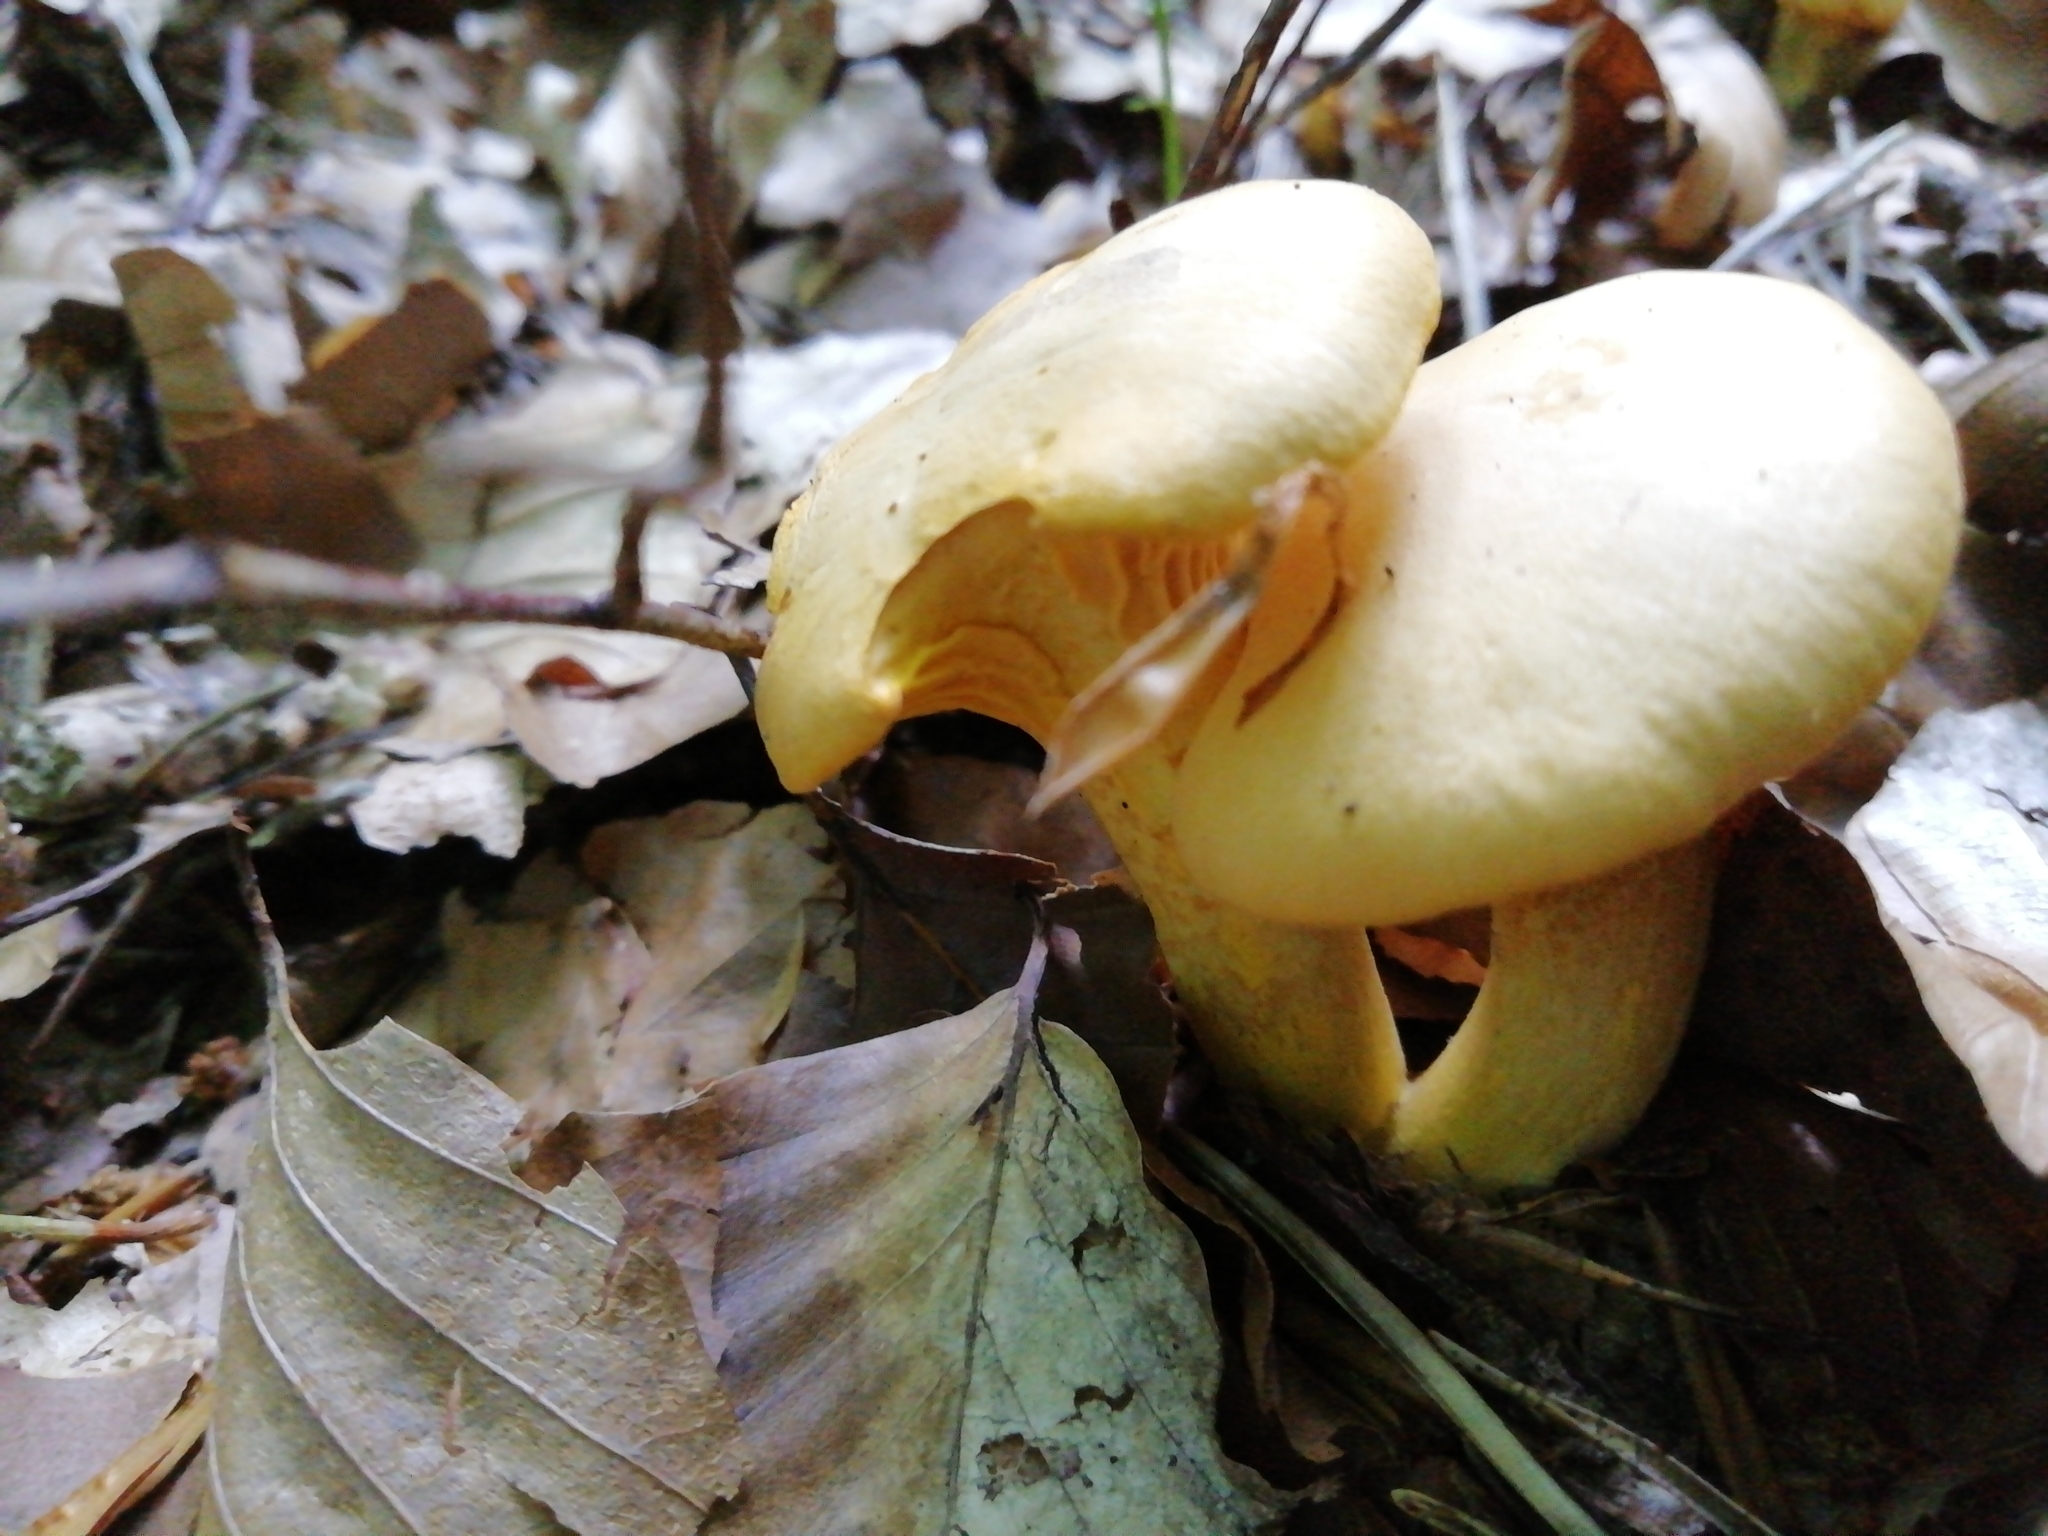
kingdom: Fungi
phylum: Basidiomycota
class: Agaricomycetes
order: Cantharellales
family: Hydnaceae
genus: Cantharellus
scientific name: Cantharellus pallens
